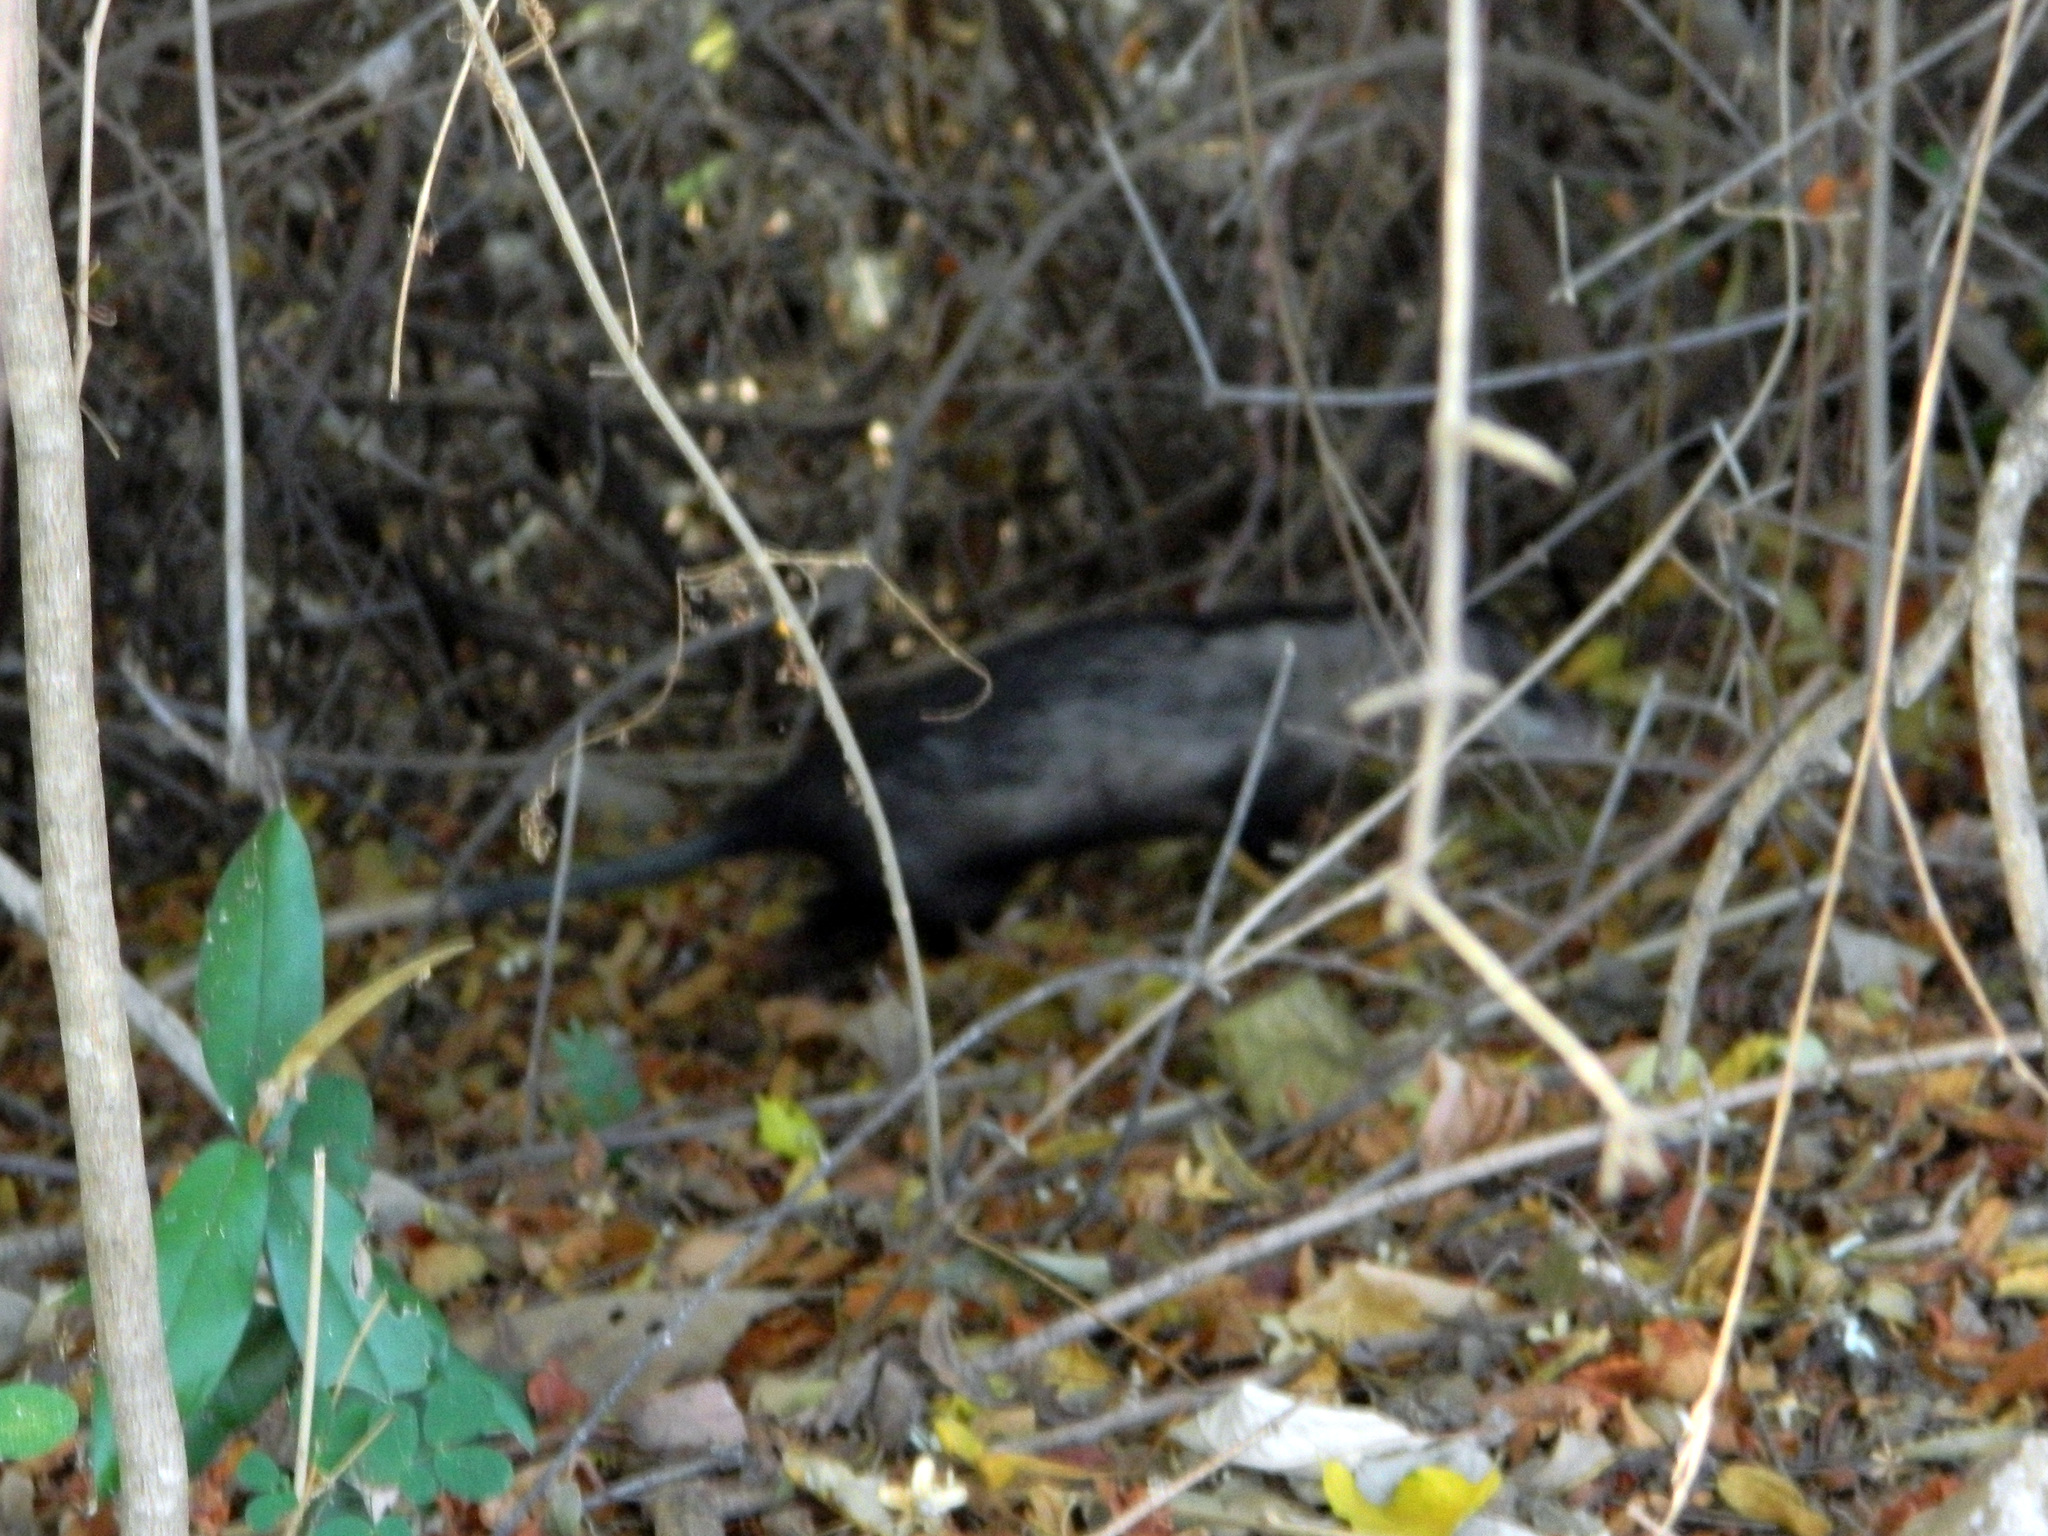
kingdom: Animalia
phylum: Chordata
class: Mammalia
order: Didelphimorphia
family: Didelphidae
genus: Didelphis
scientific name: Didelphis virginiana
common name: Virginia opossum
